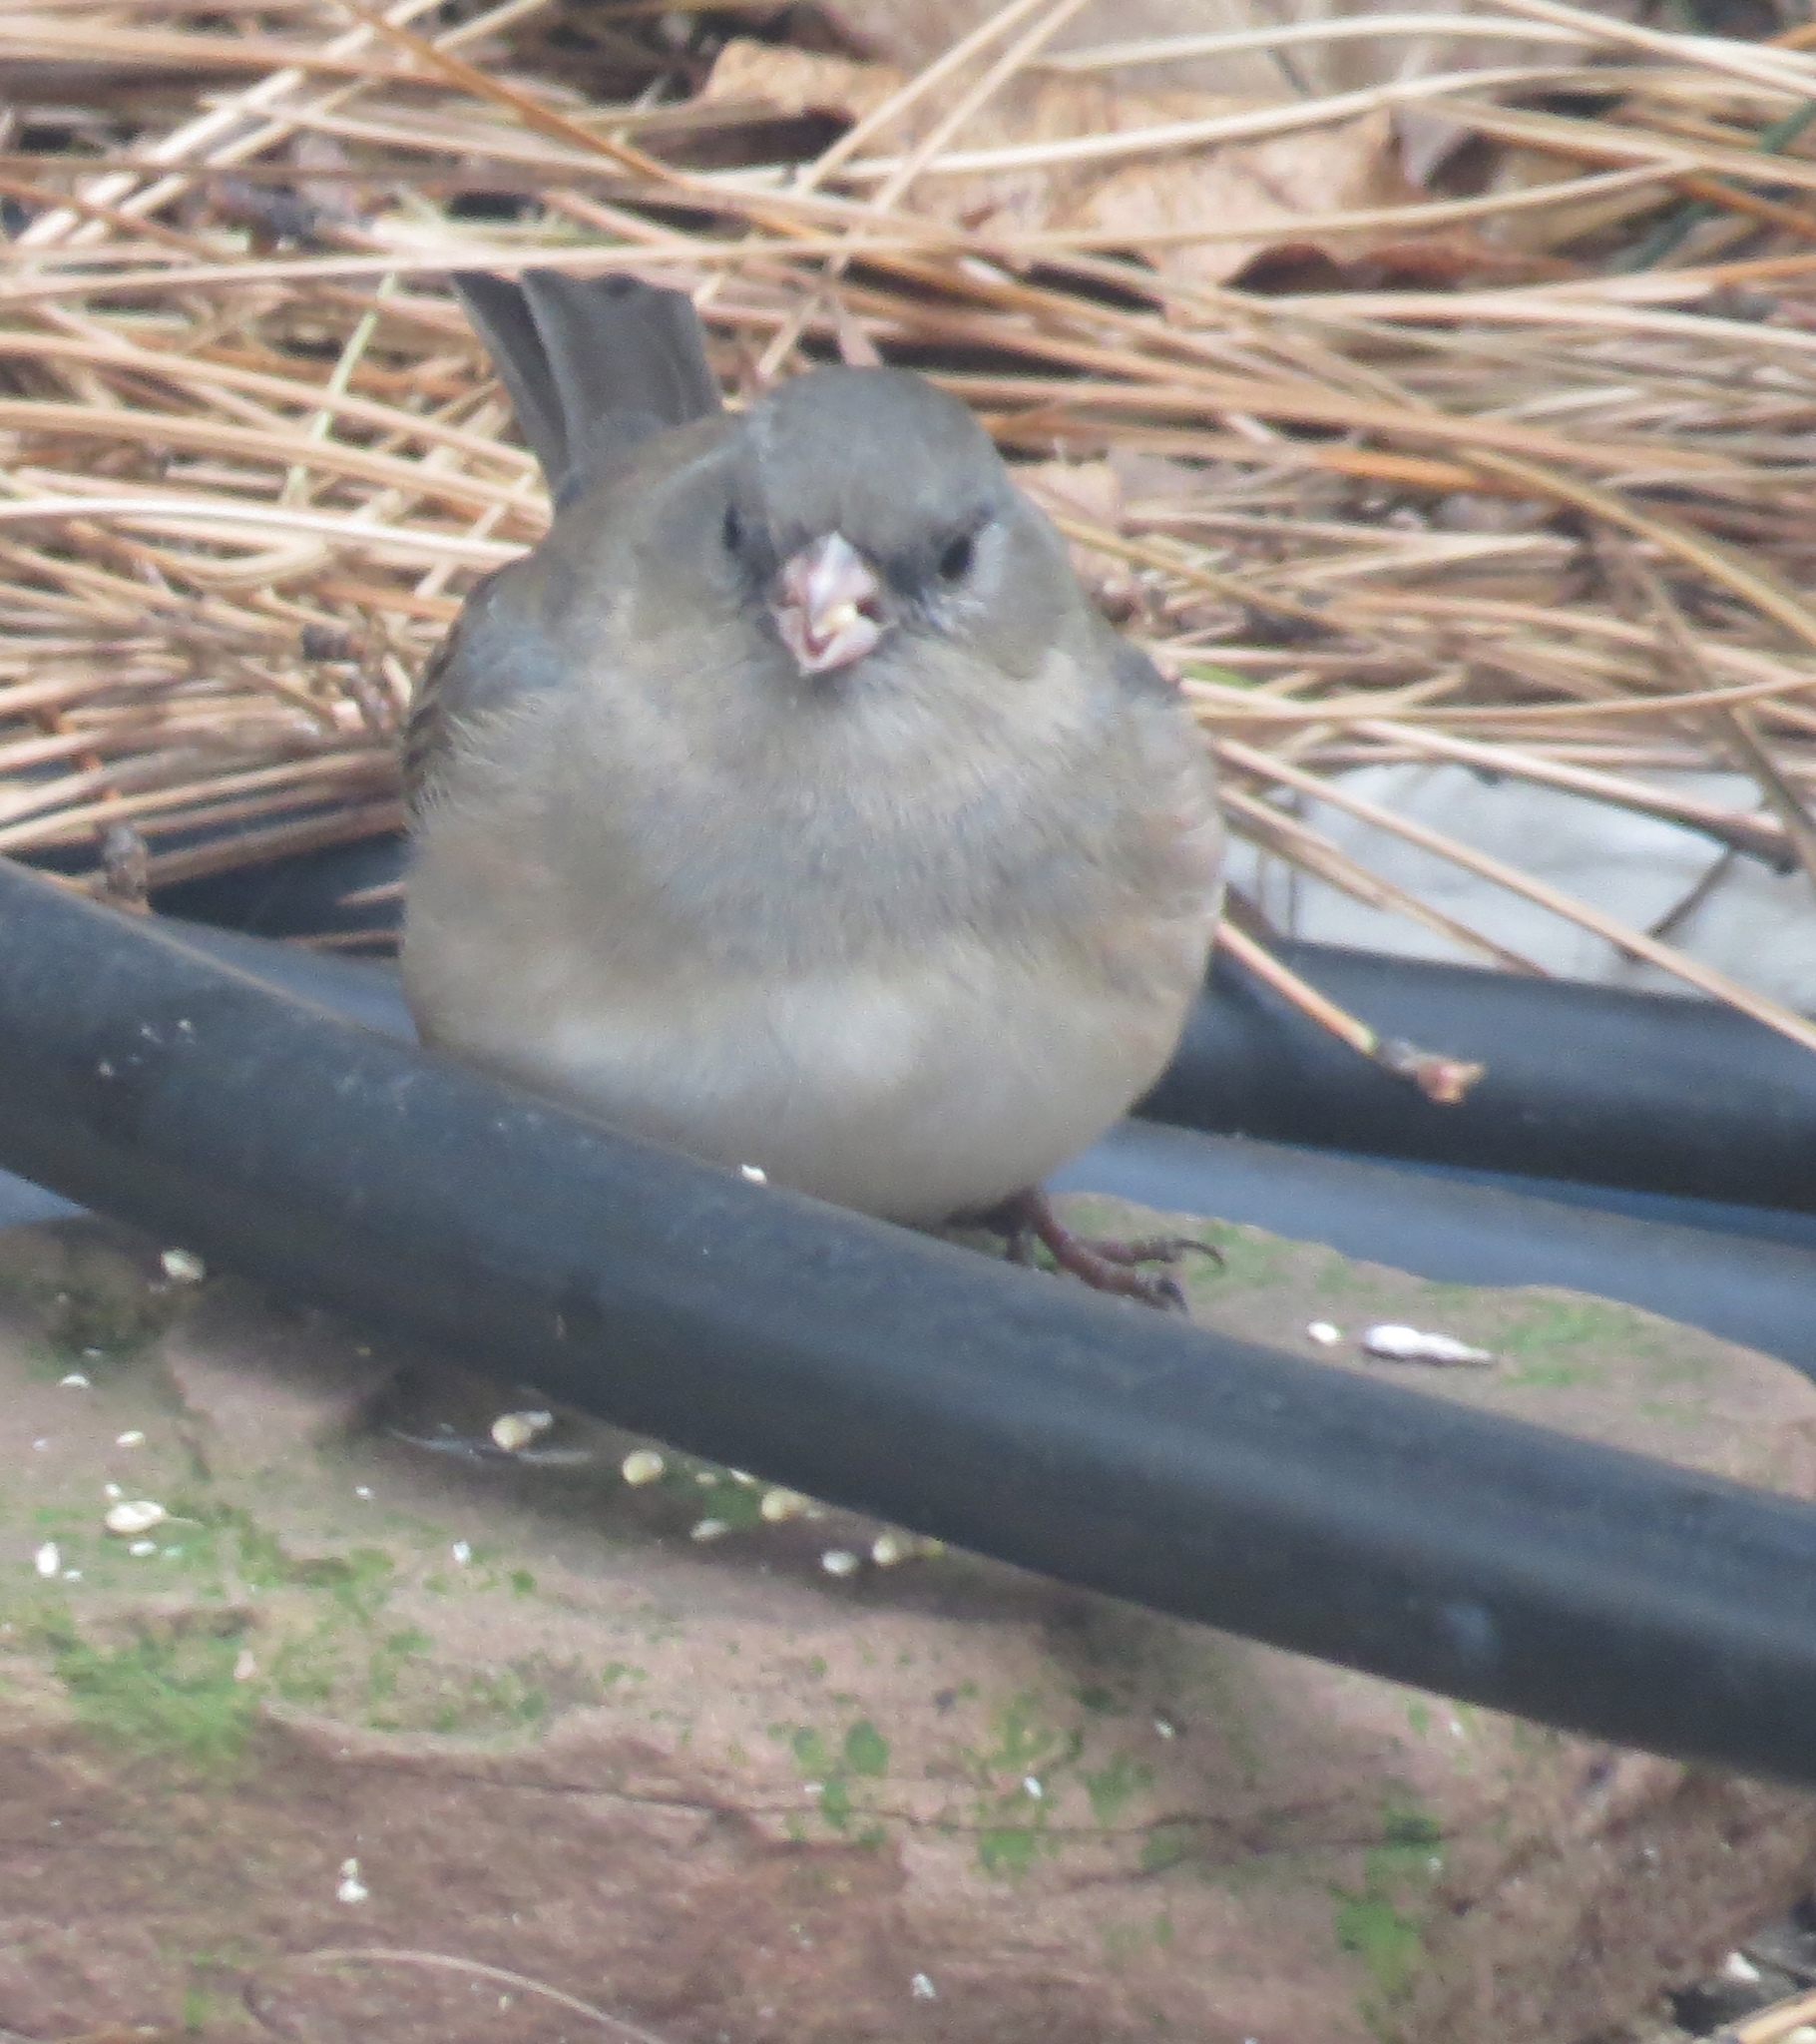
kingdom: Animalia
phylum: Chordata
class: Aves
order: Passeriformes
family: Passerellidae
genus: Junco
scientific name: Junco hyemalis
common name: Dark-eyed junco
